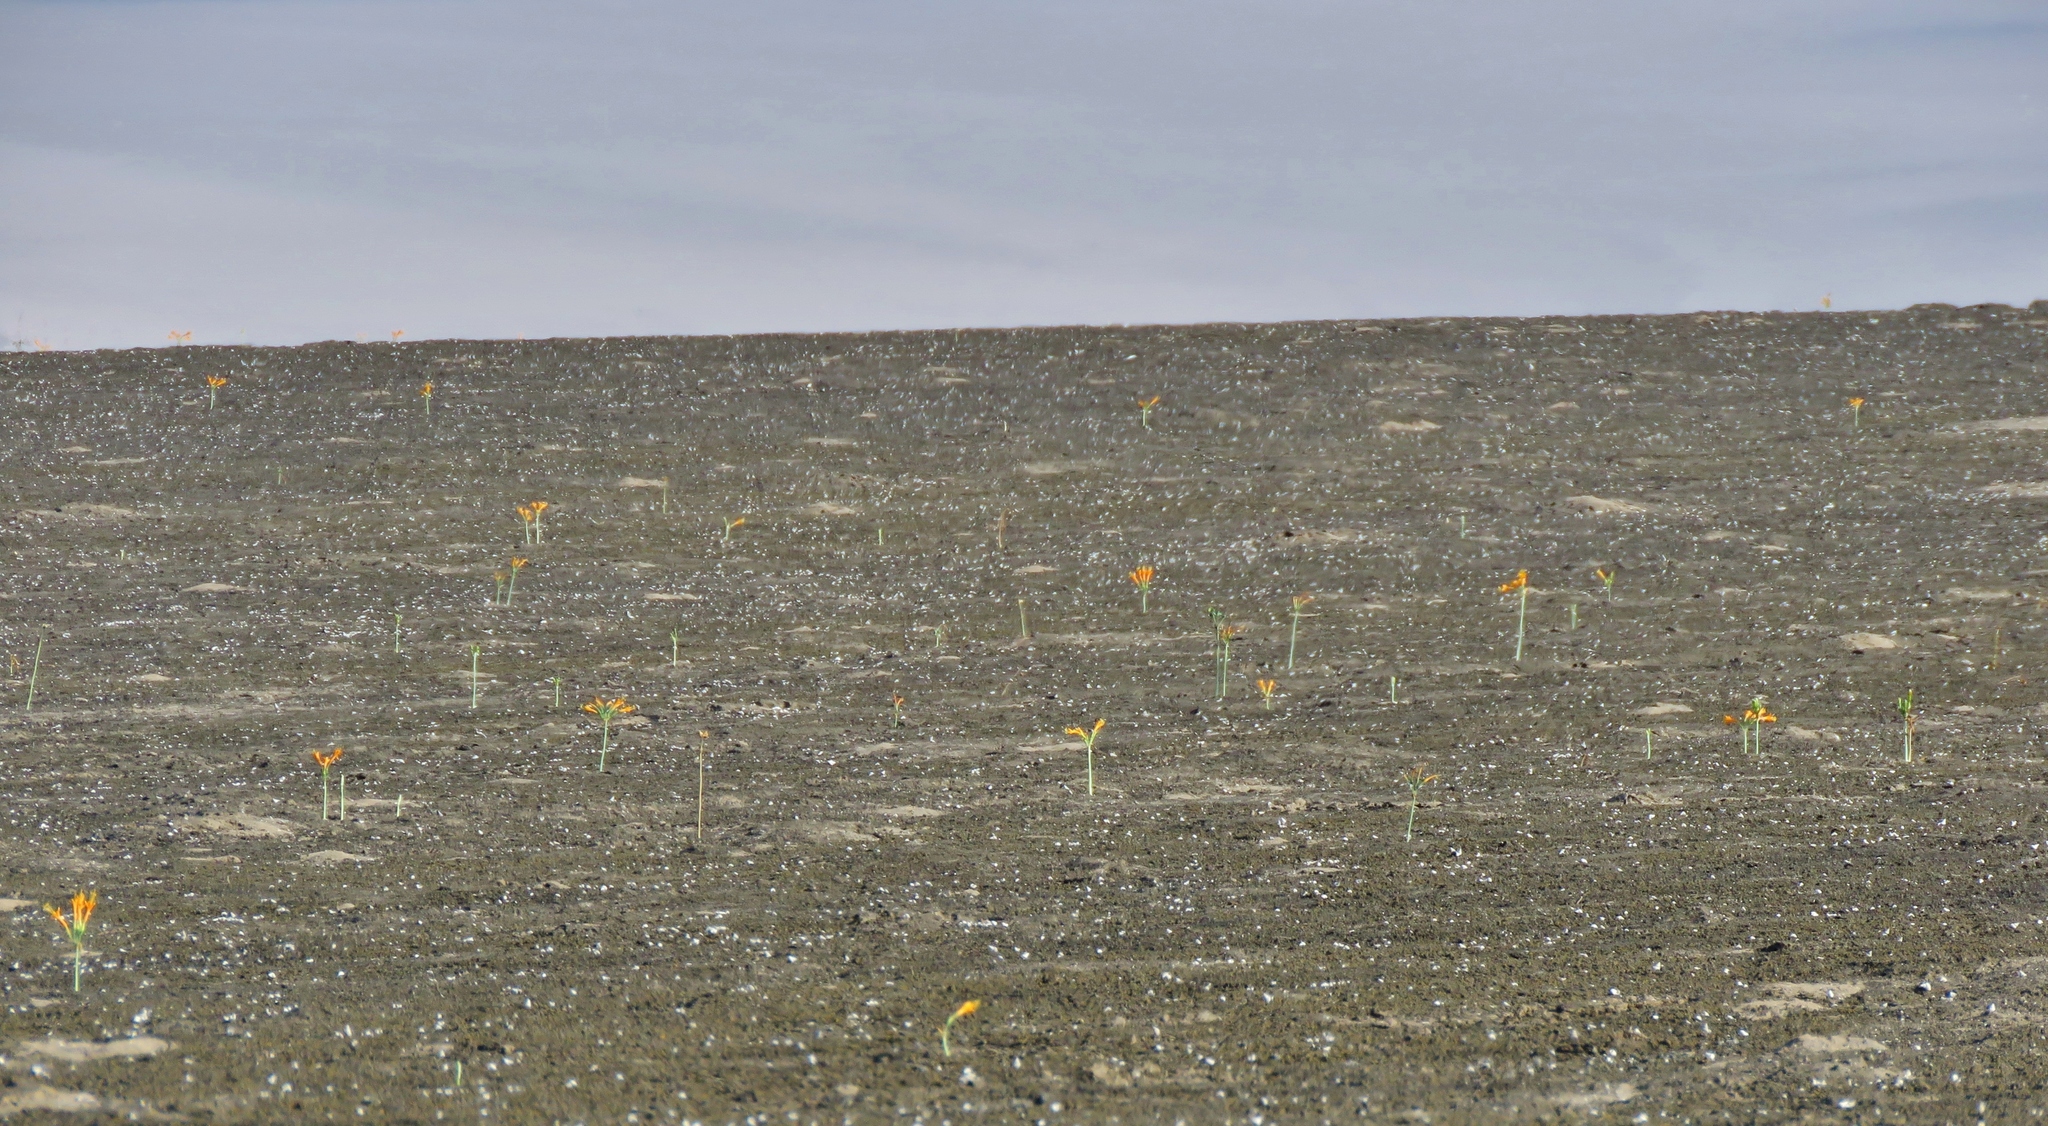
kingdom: Plantae
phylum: Tracheophyta
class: Liliopsida
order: Asparagales
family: Amaryllidaceae
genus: Stenomesson
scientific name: Stenomesson flavum
